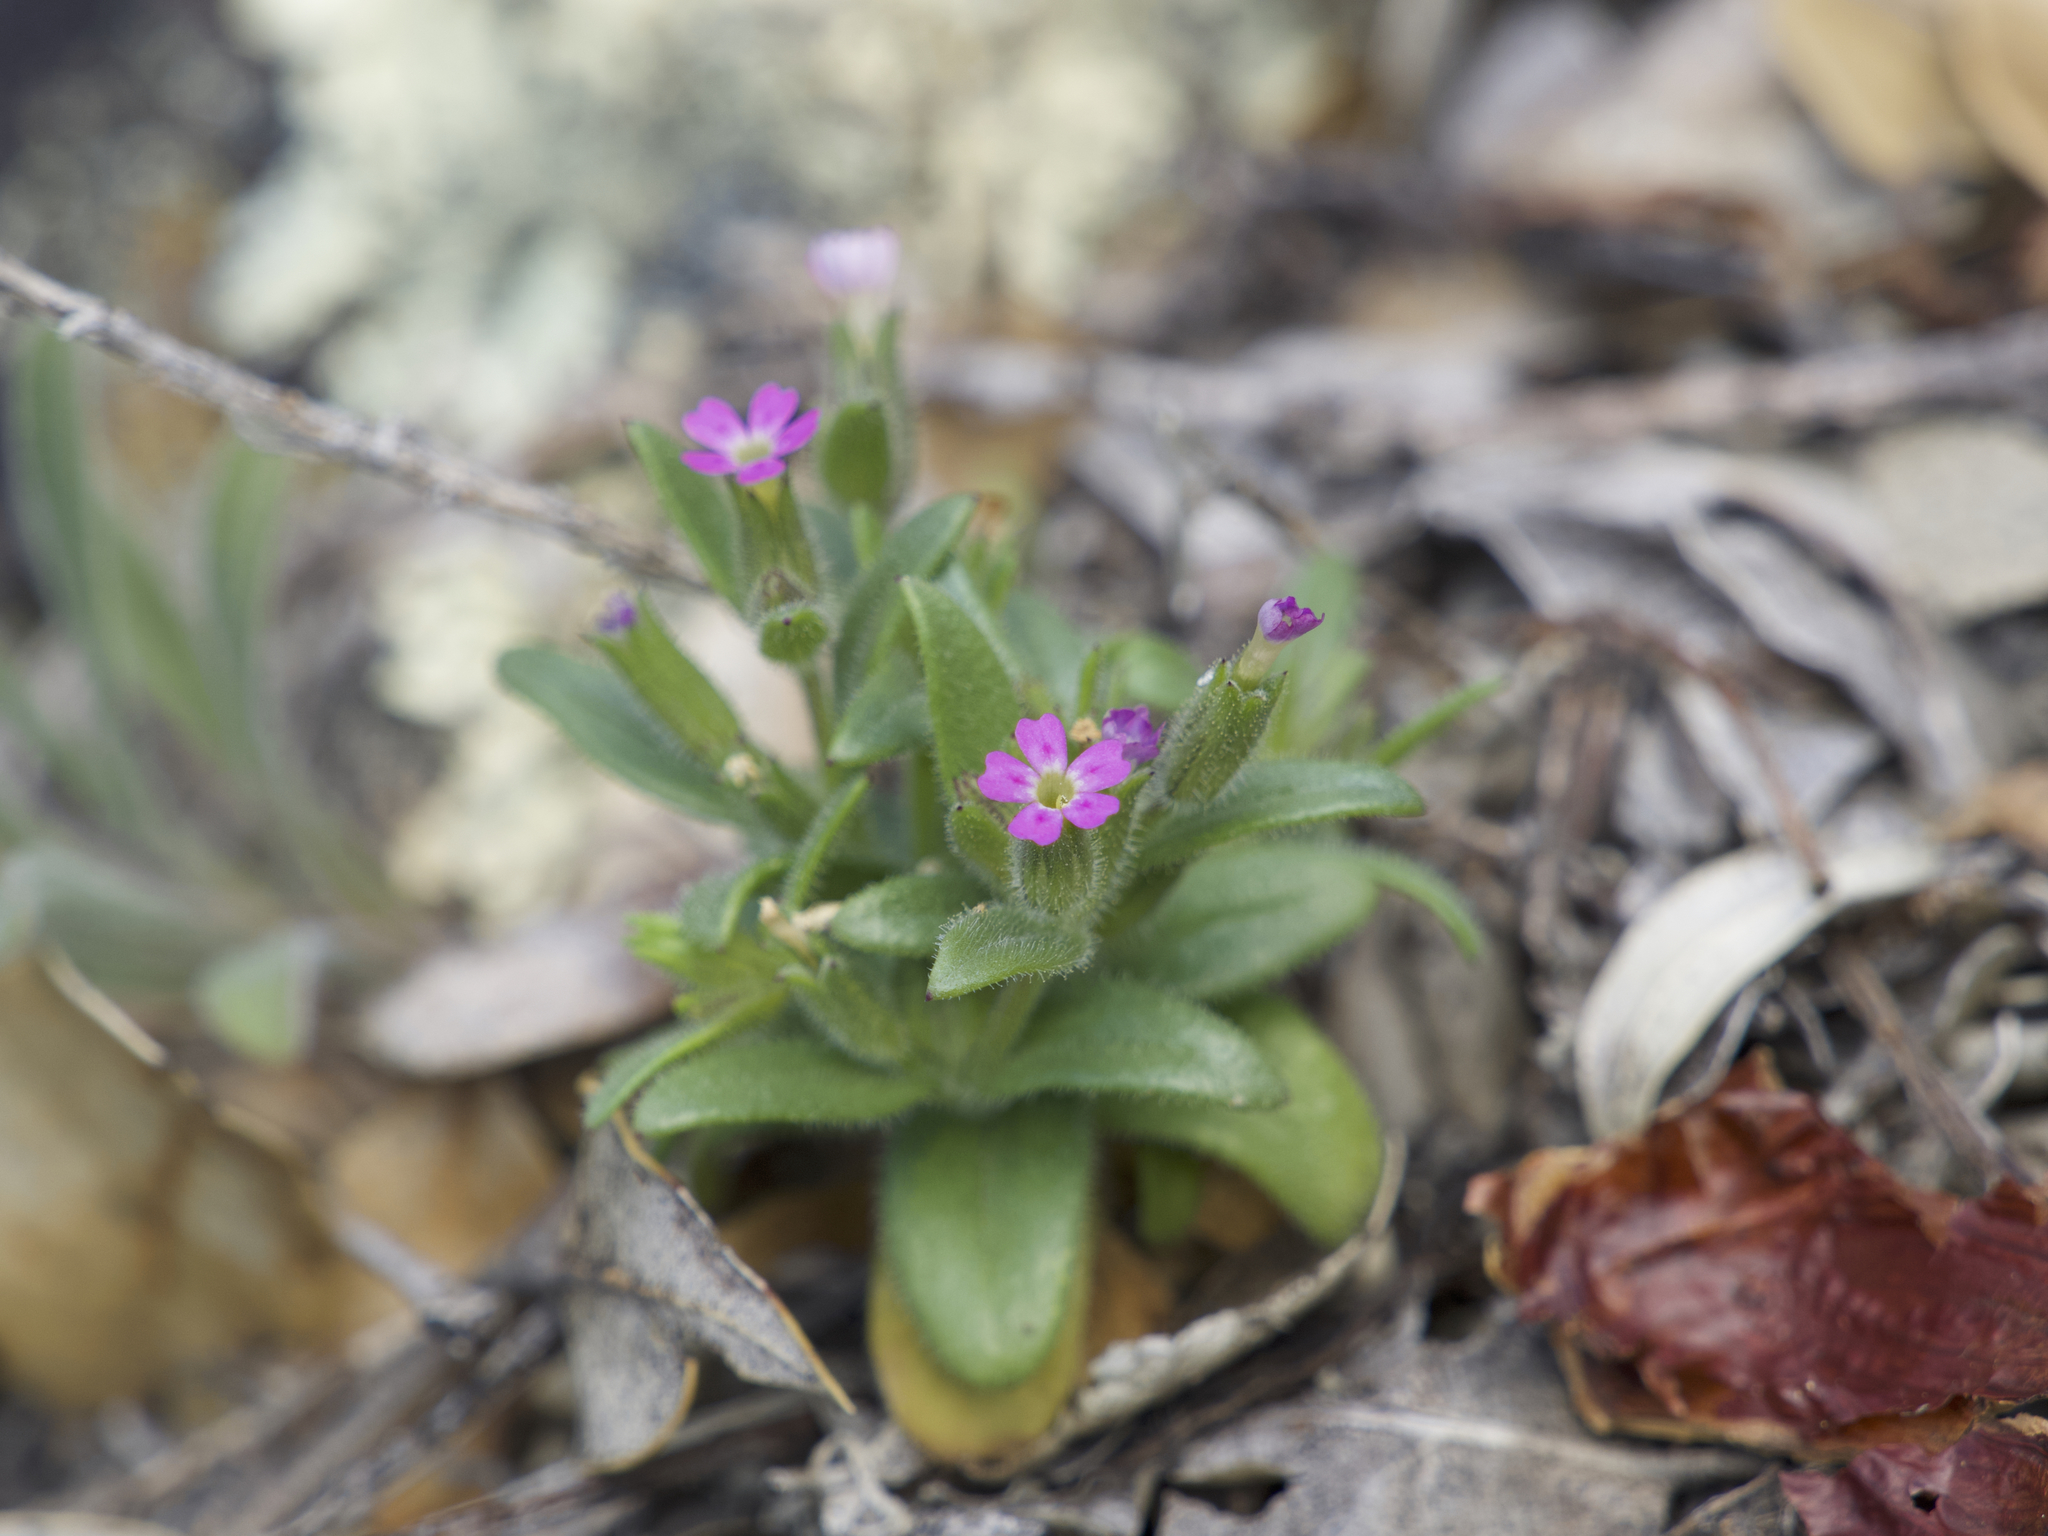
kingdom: Plantae
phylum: Tracheophyta
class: Magnoliopsida
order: Ericales
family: Polemoniaceae
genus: Phlox
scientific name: Phlox gracilis
